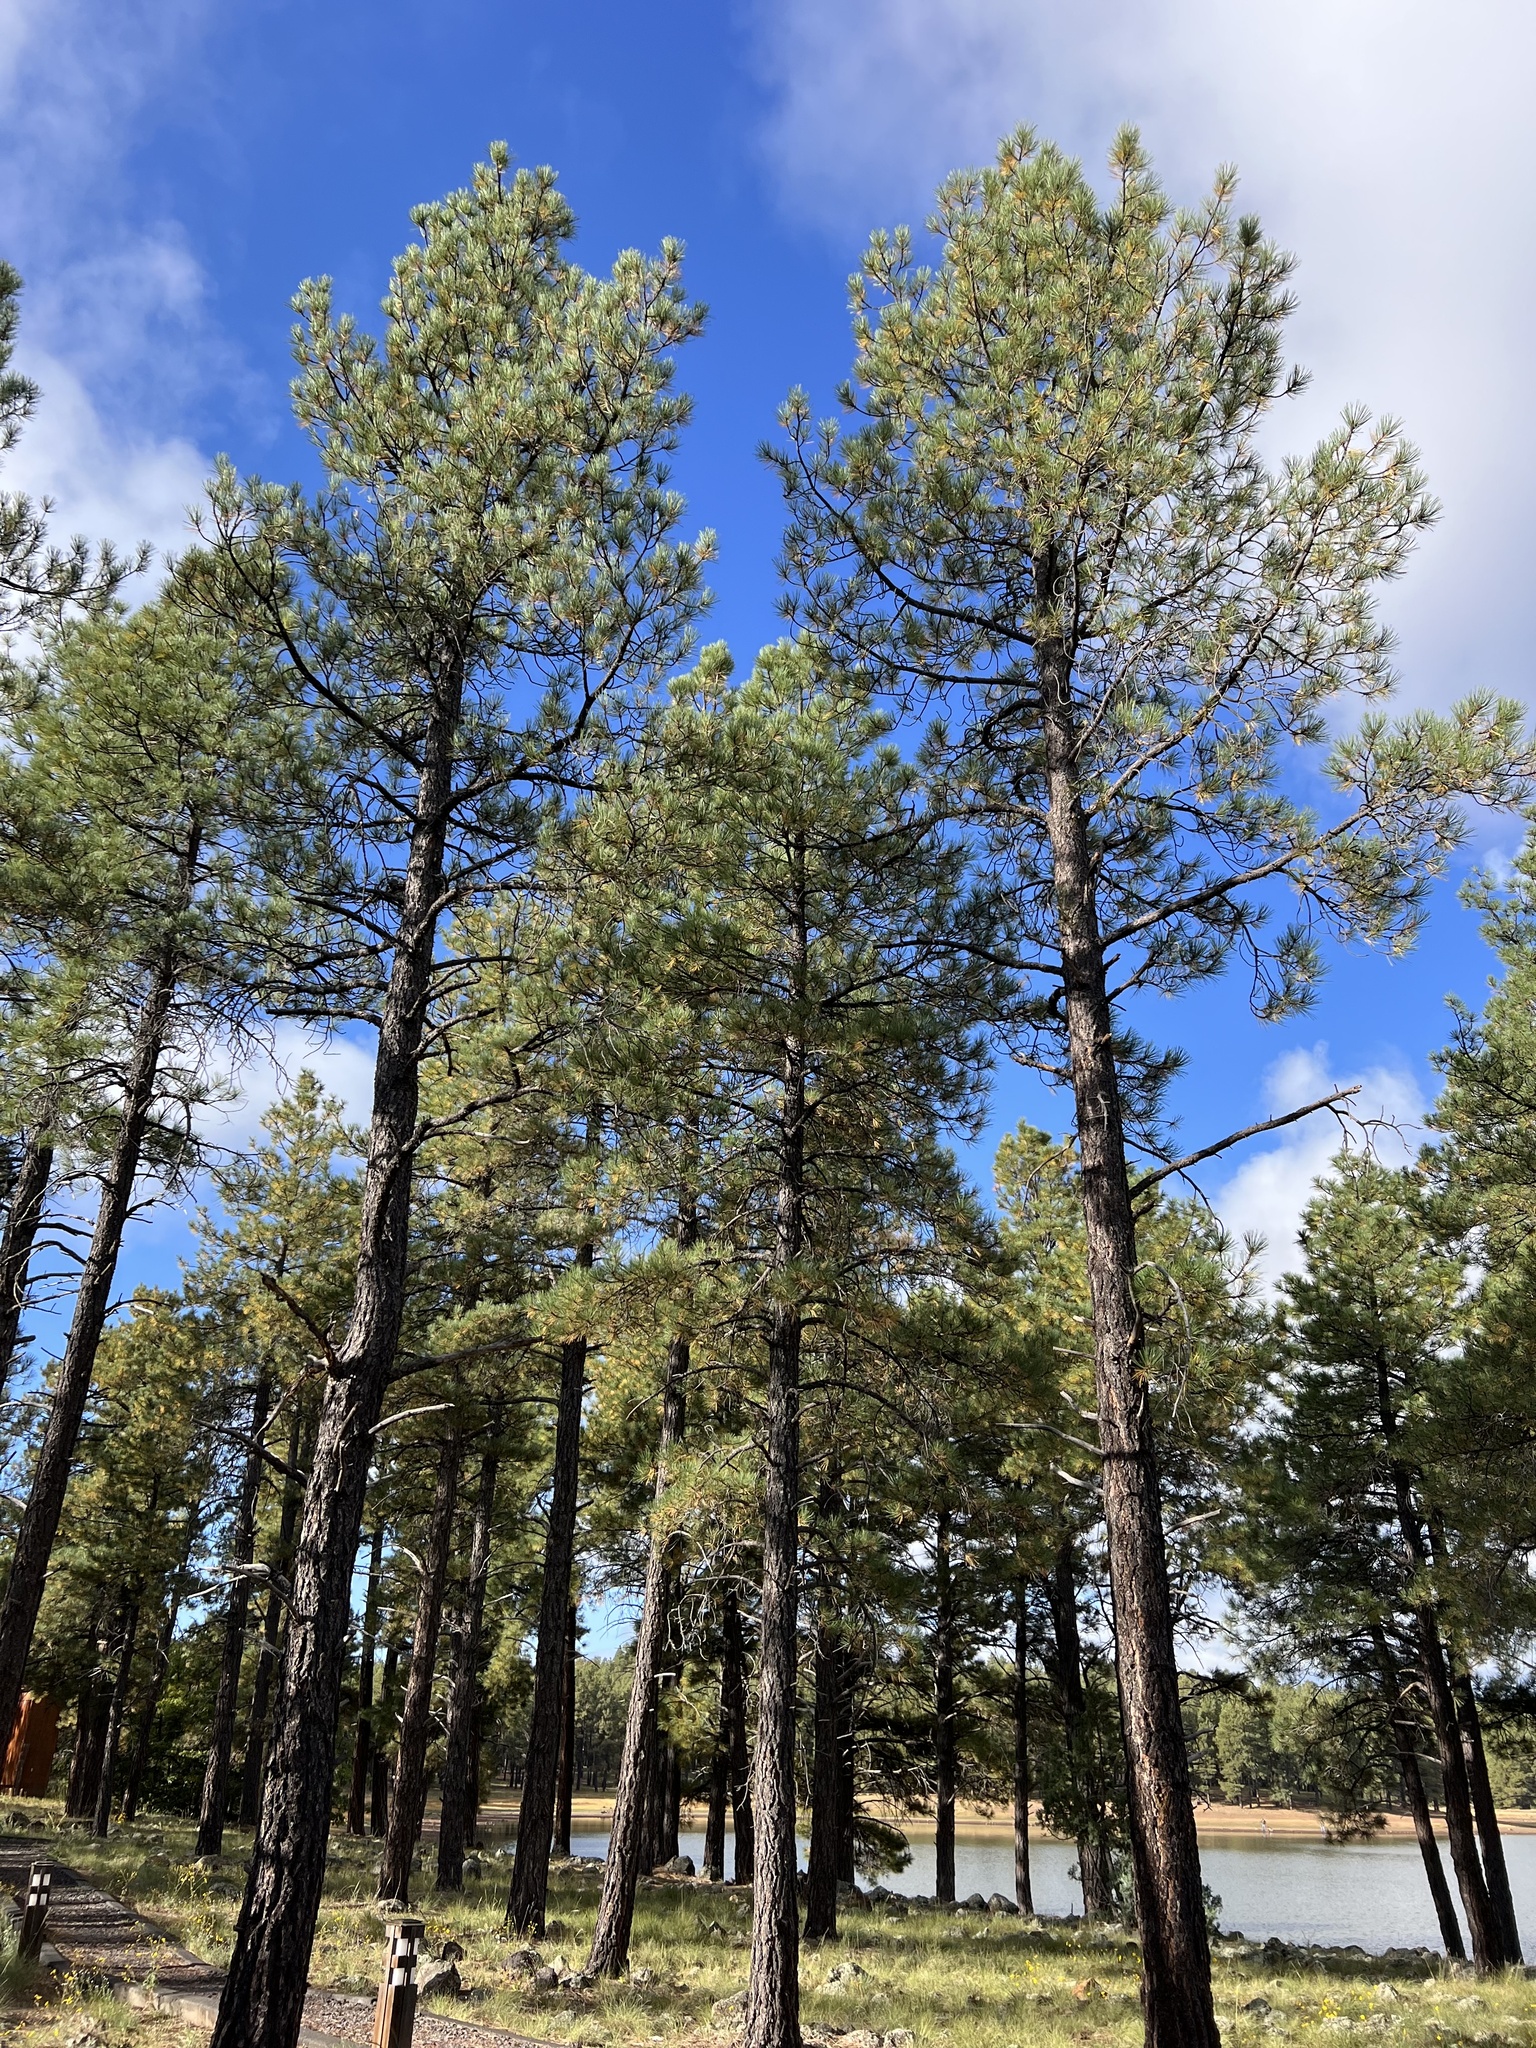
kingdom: Plantae
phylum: Tracheophyta
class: Pinopsida
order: Pinales
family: Pinaceae
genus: Pinus
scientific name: Pinus ponderosa
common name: Western yellow-pine
